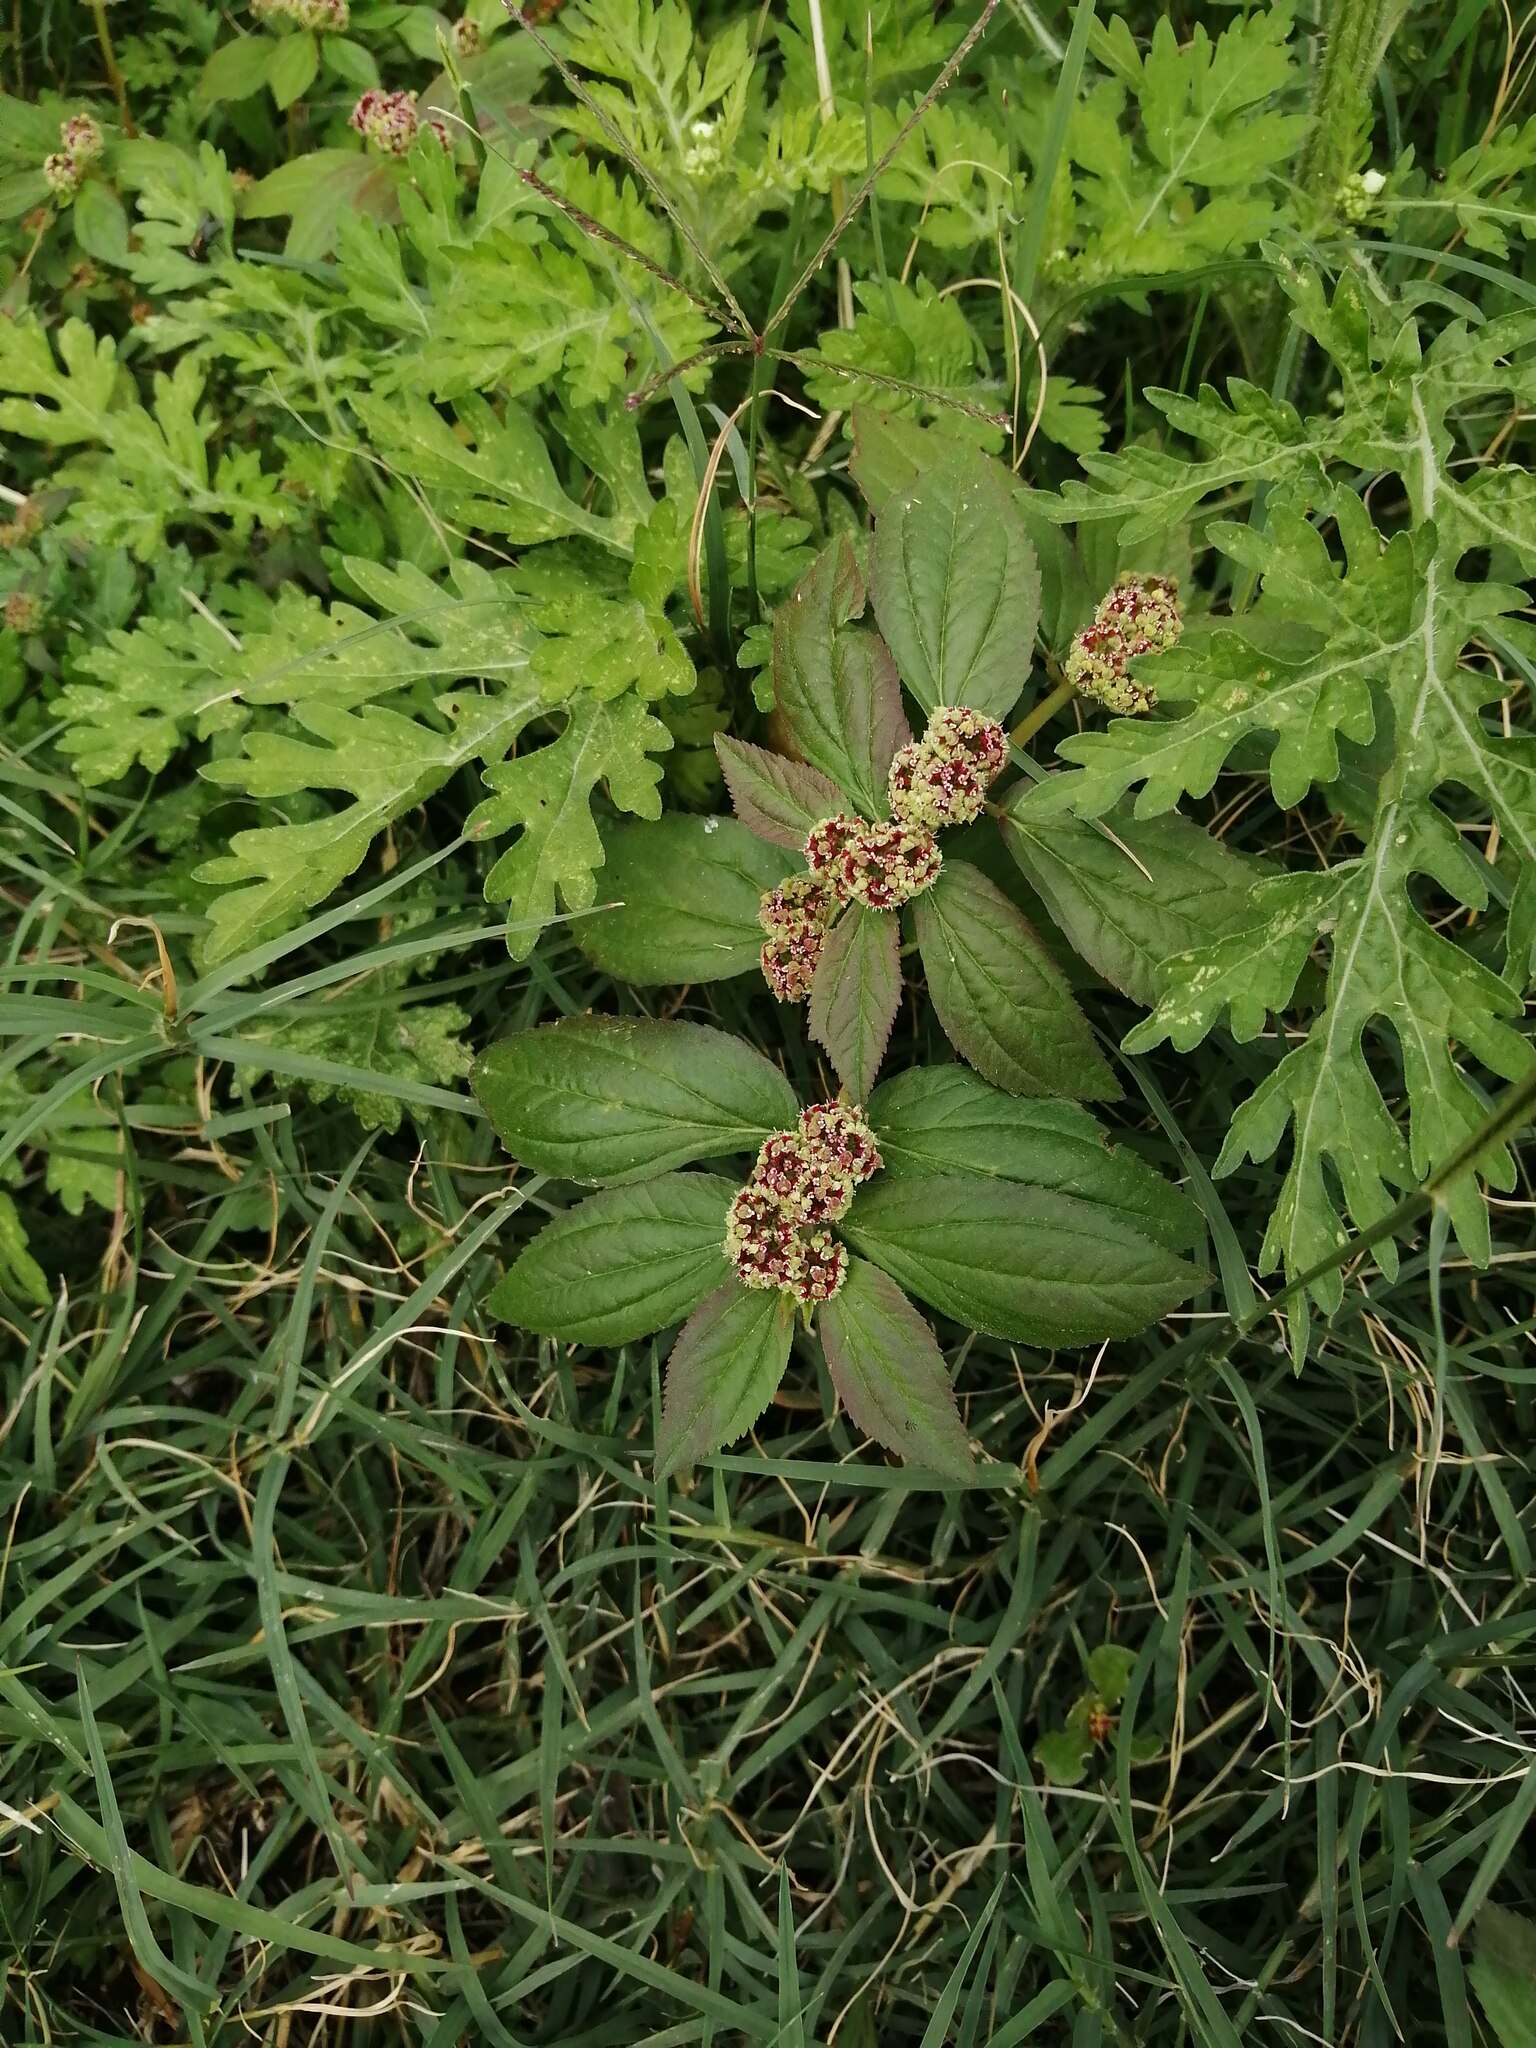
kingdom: Plantae
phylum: Tracheophyta
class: Magnoliopsida
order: Malpighiales
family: Euphorbiaceae
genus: Euphorbia
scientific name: Euphorbia hirta
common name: Pillpod sandmat
